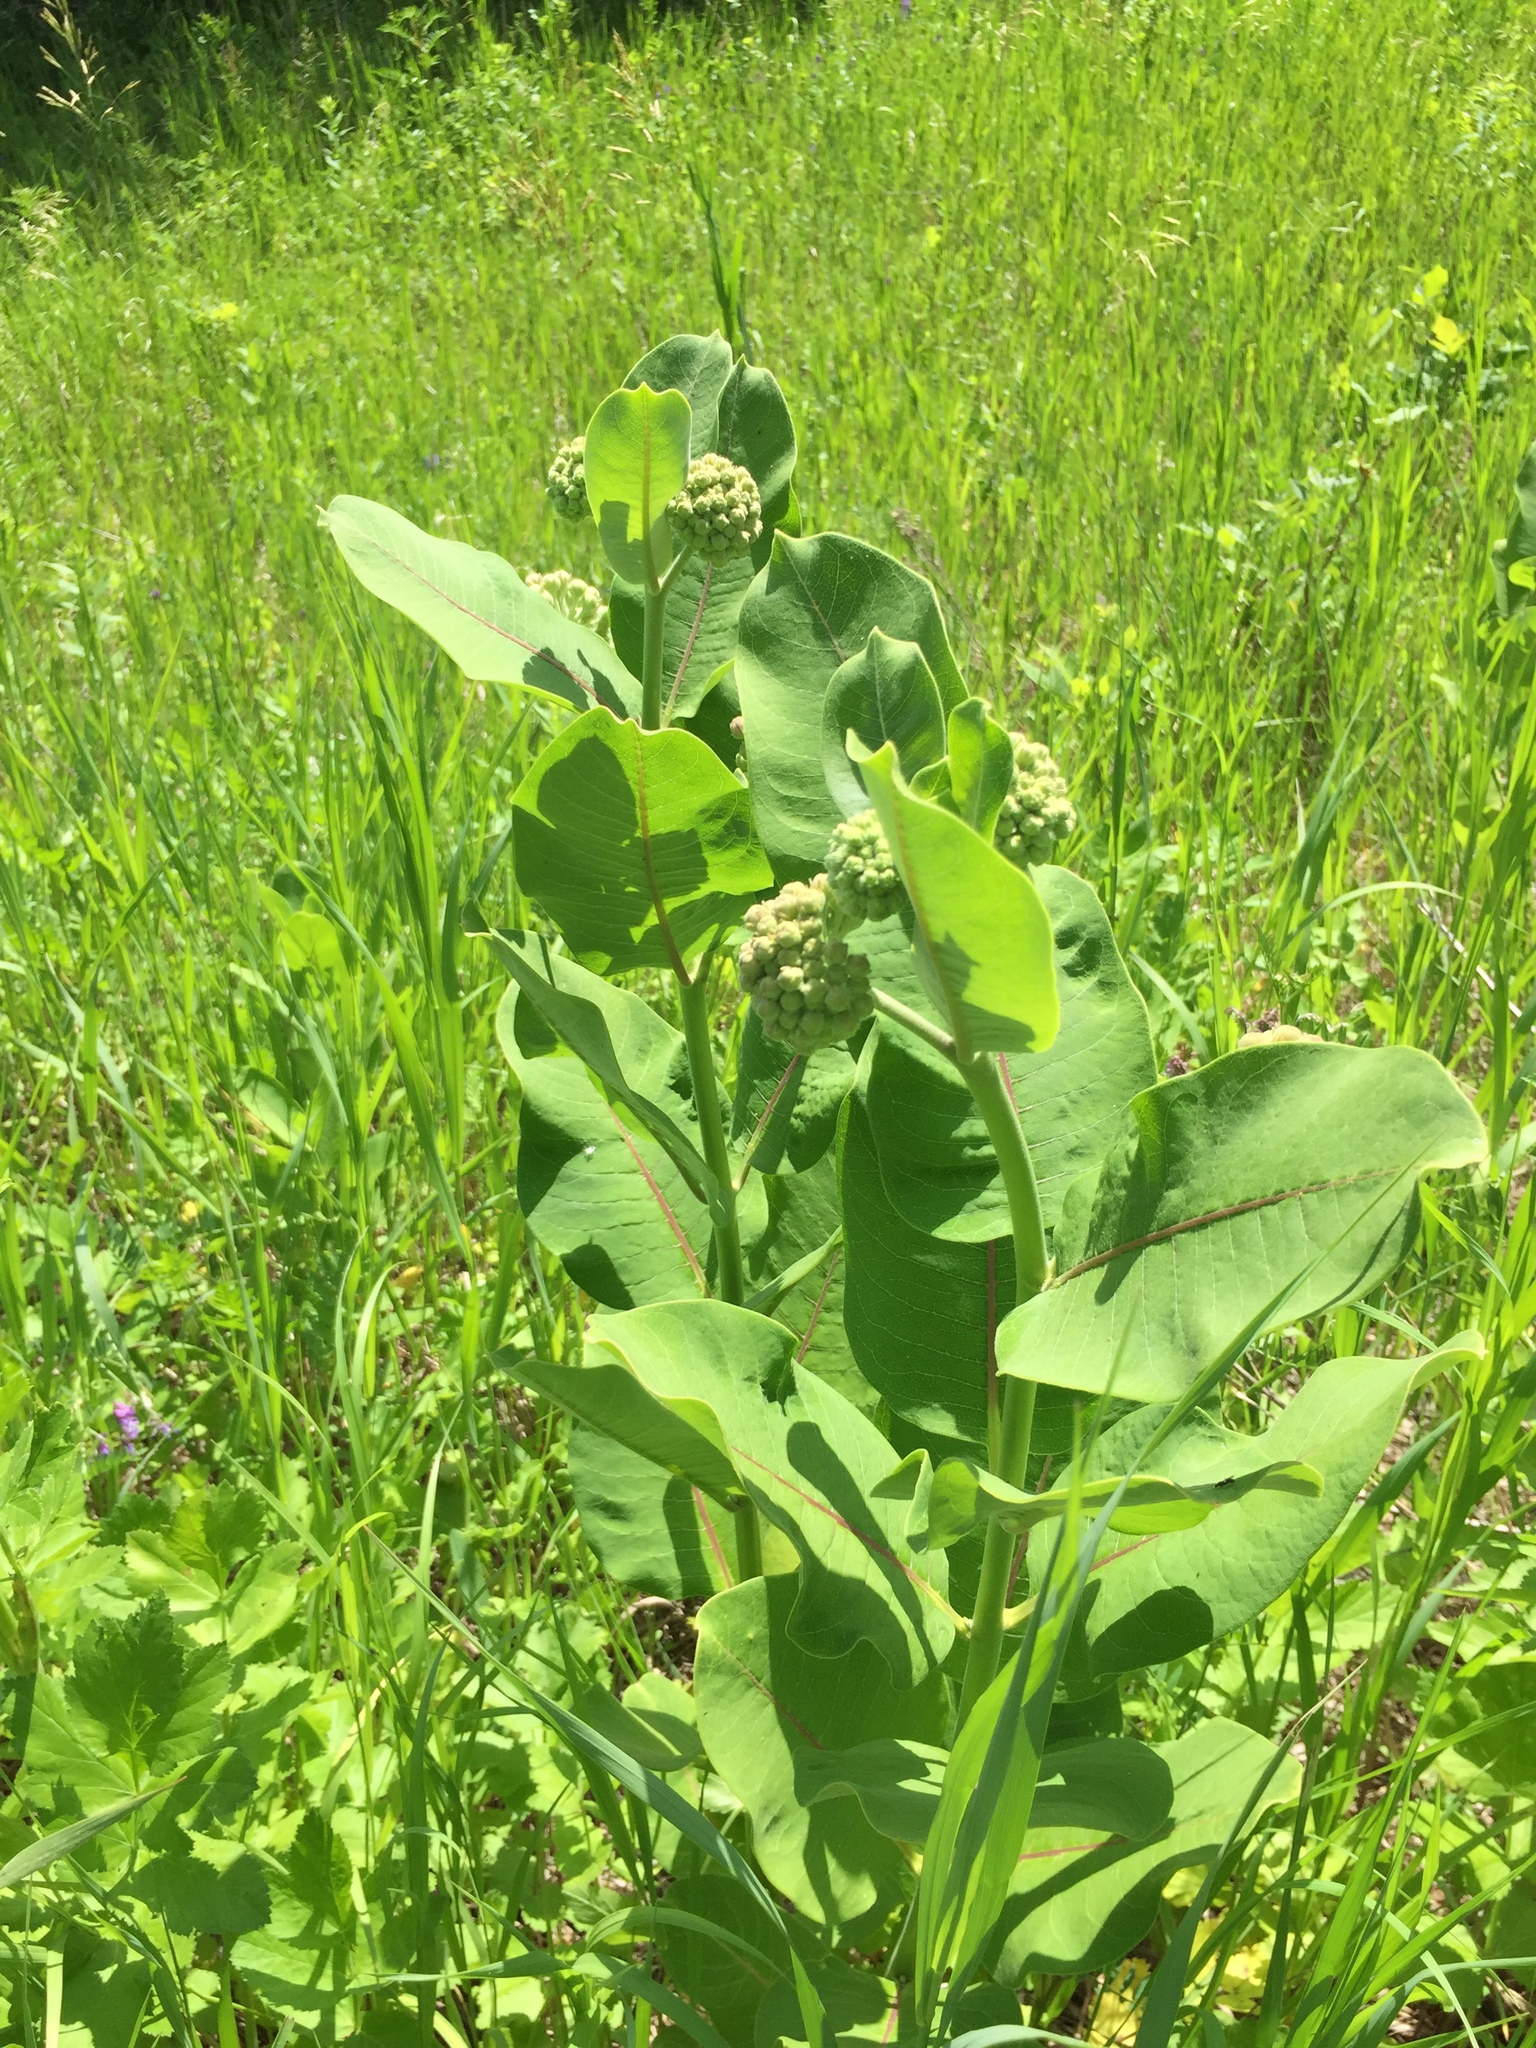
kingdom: Plantae
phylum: Tracheophyta
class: Magnoliopsida
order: Gentianales
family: Apocynaceae
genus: Asclepias
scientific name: Asclepias syriaca
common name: Common milkweed
